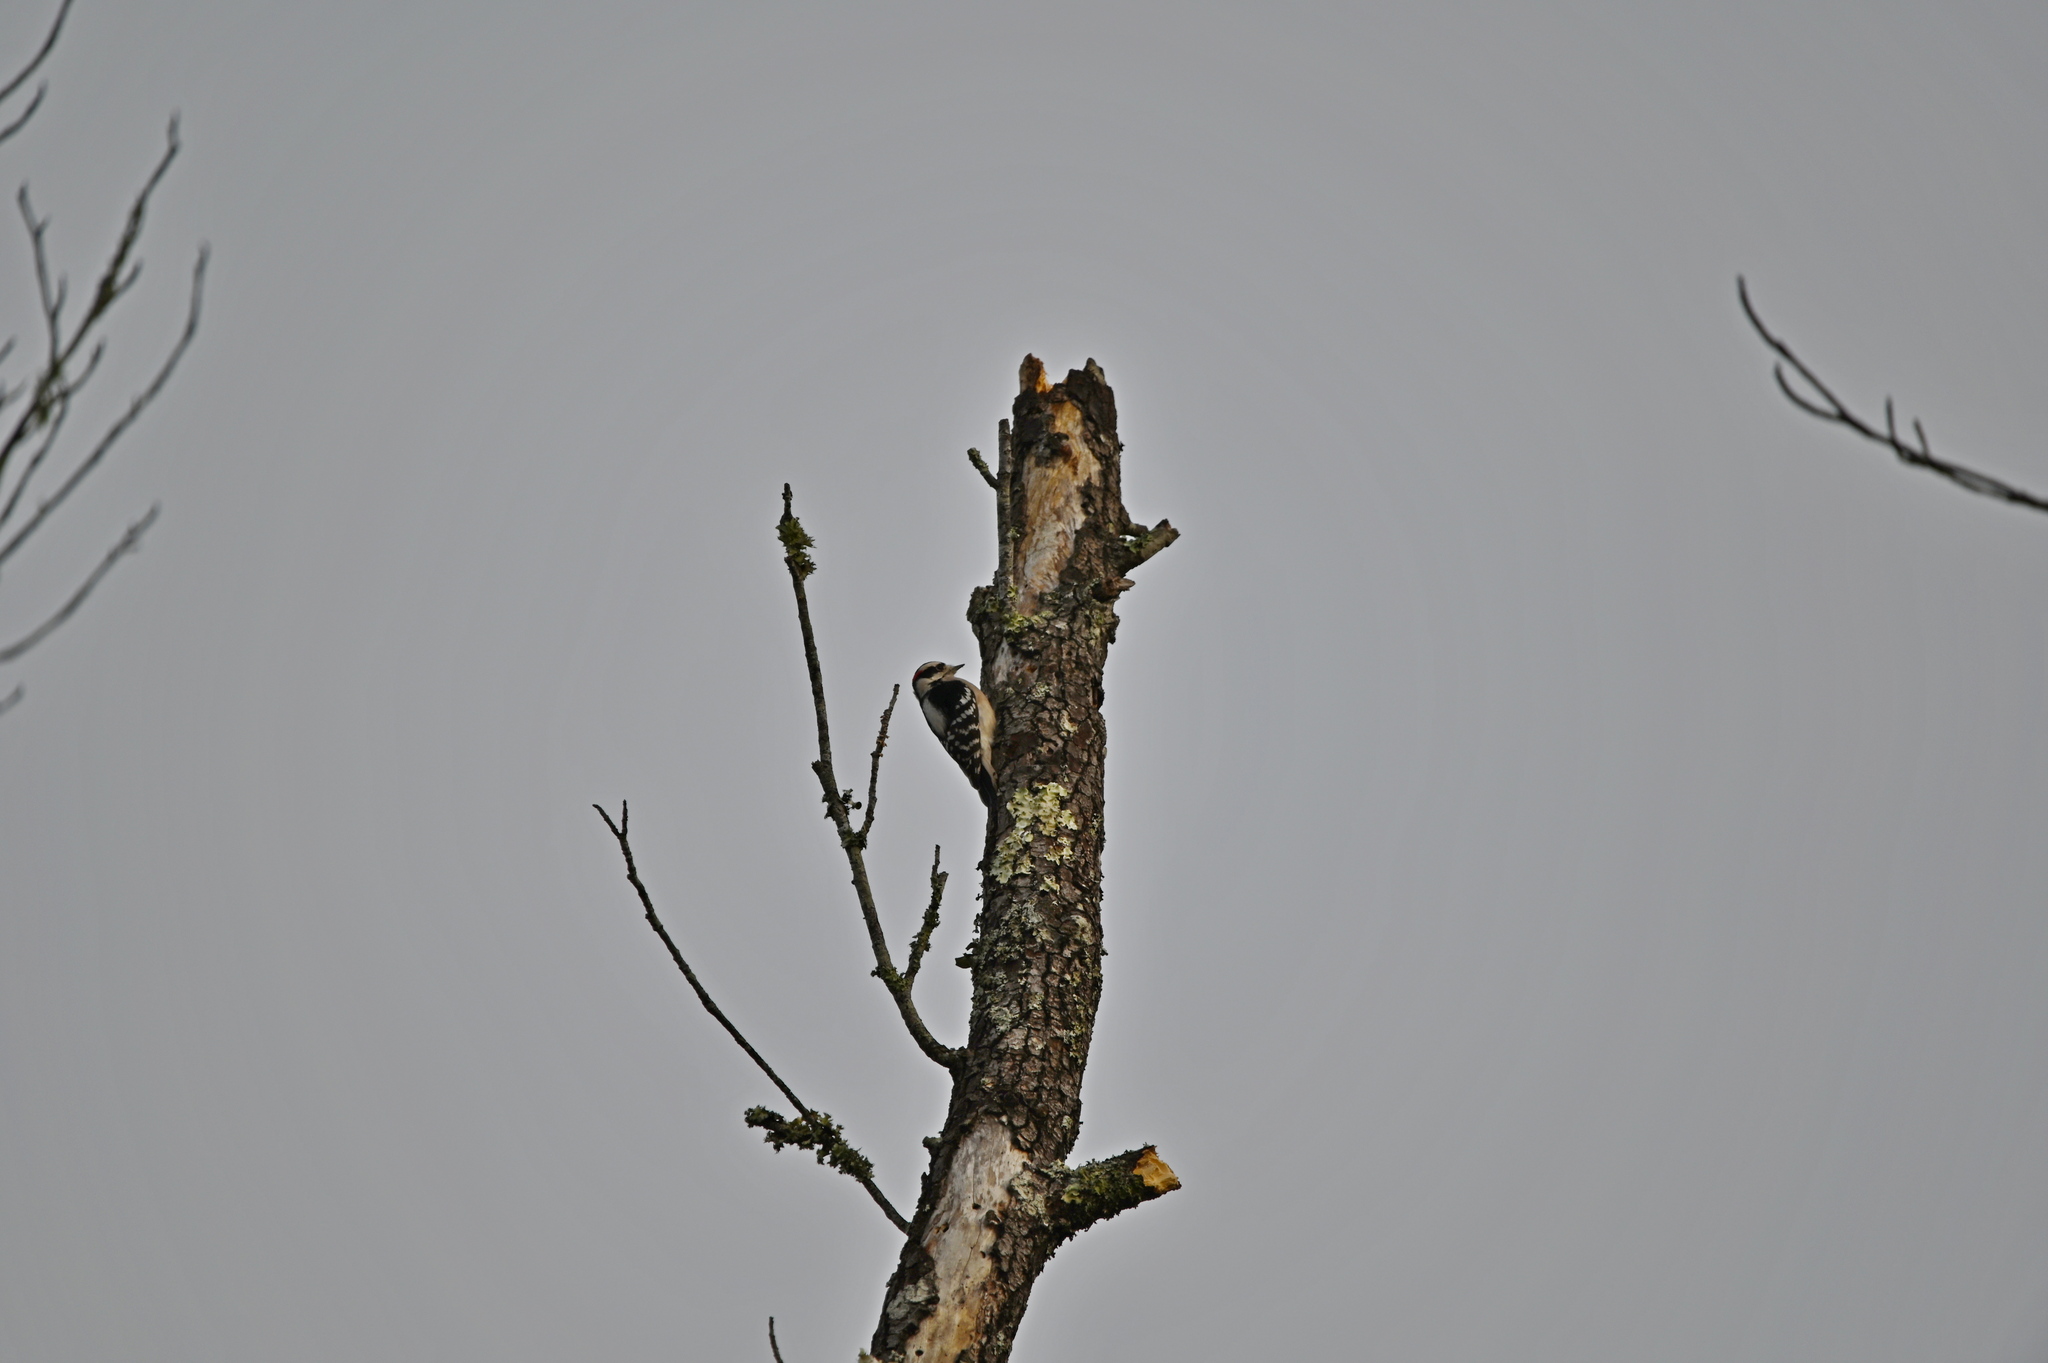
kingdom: Animalia
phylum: Chordata
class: Aves
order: Piciformes
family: Picidae
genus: Dryobates
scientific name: Dryobates pubescens
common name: Downy woodpecker
